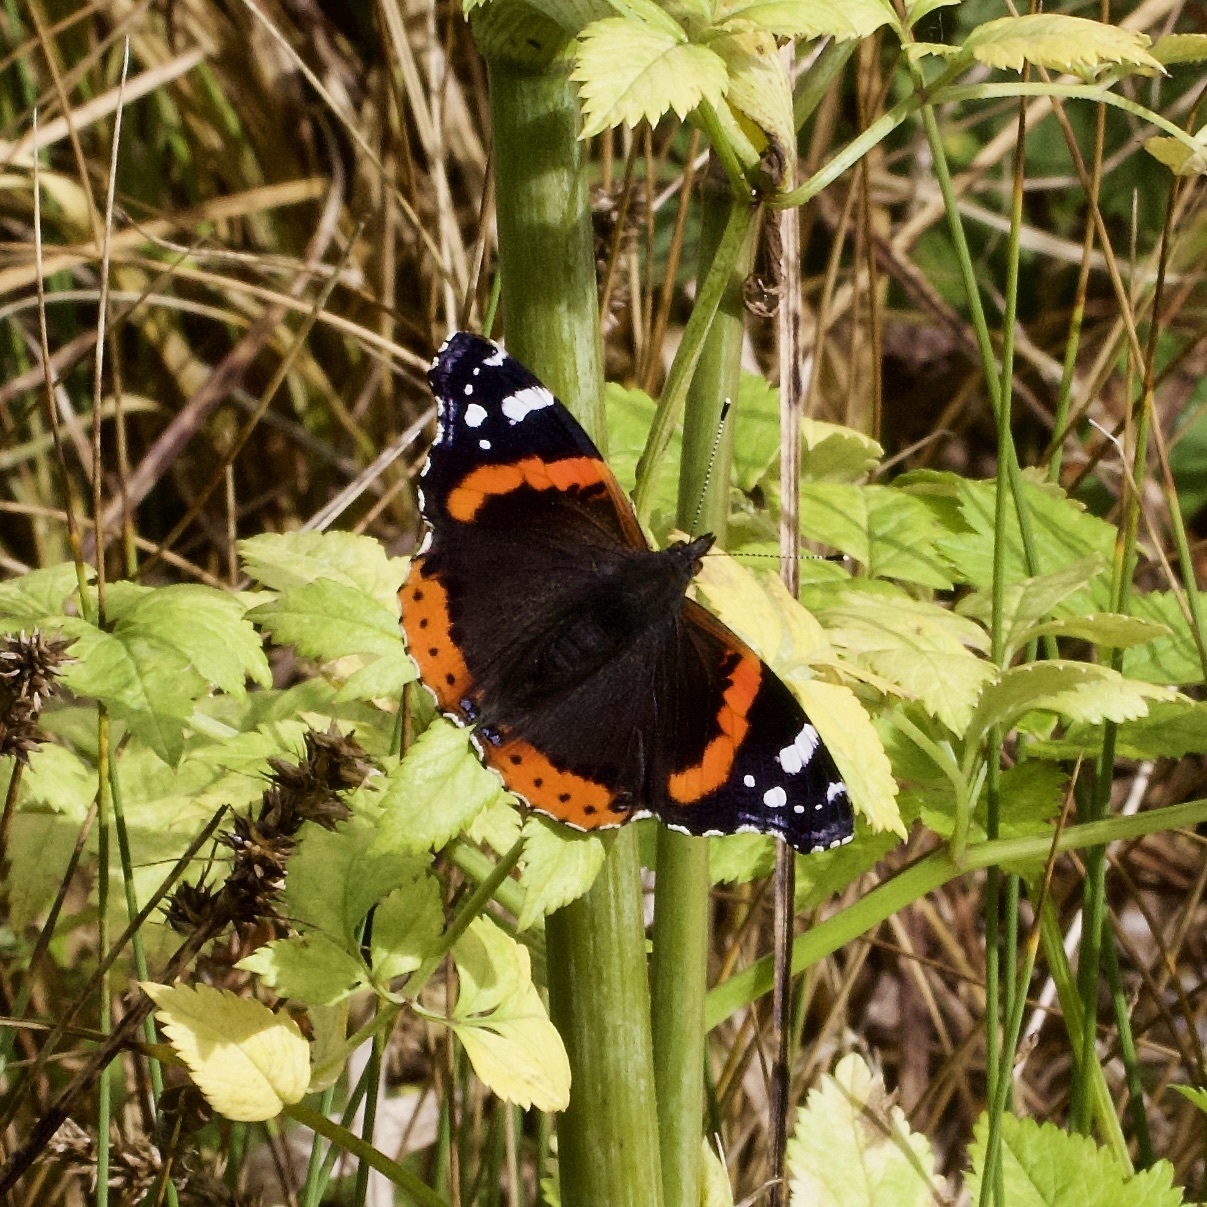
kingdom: Animalia
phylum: Arthropoda
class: Insecta
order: Lepidoptera
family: Nymphalidae
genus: Vanessa
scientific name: Vanessa atalanta
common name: Red admiral
